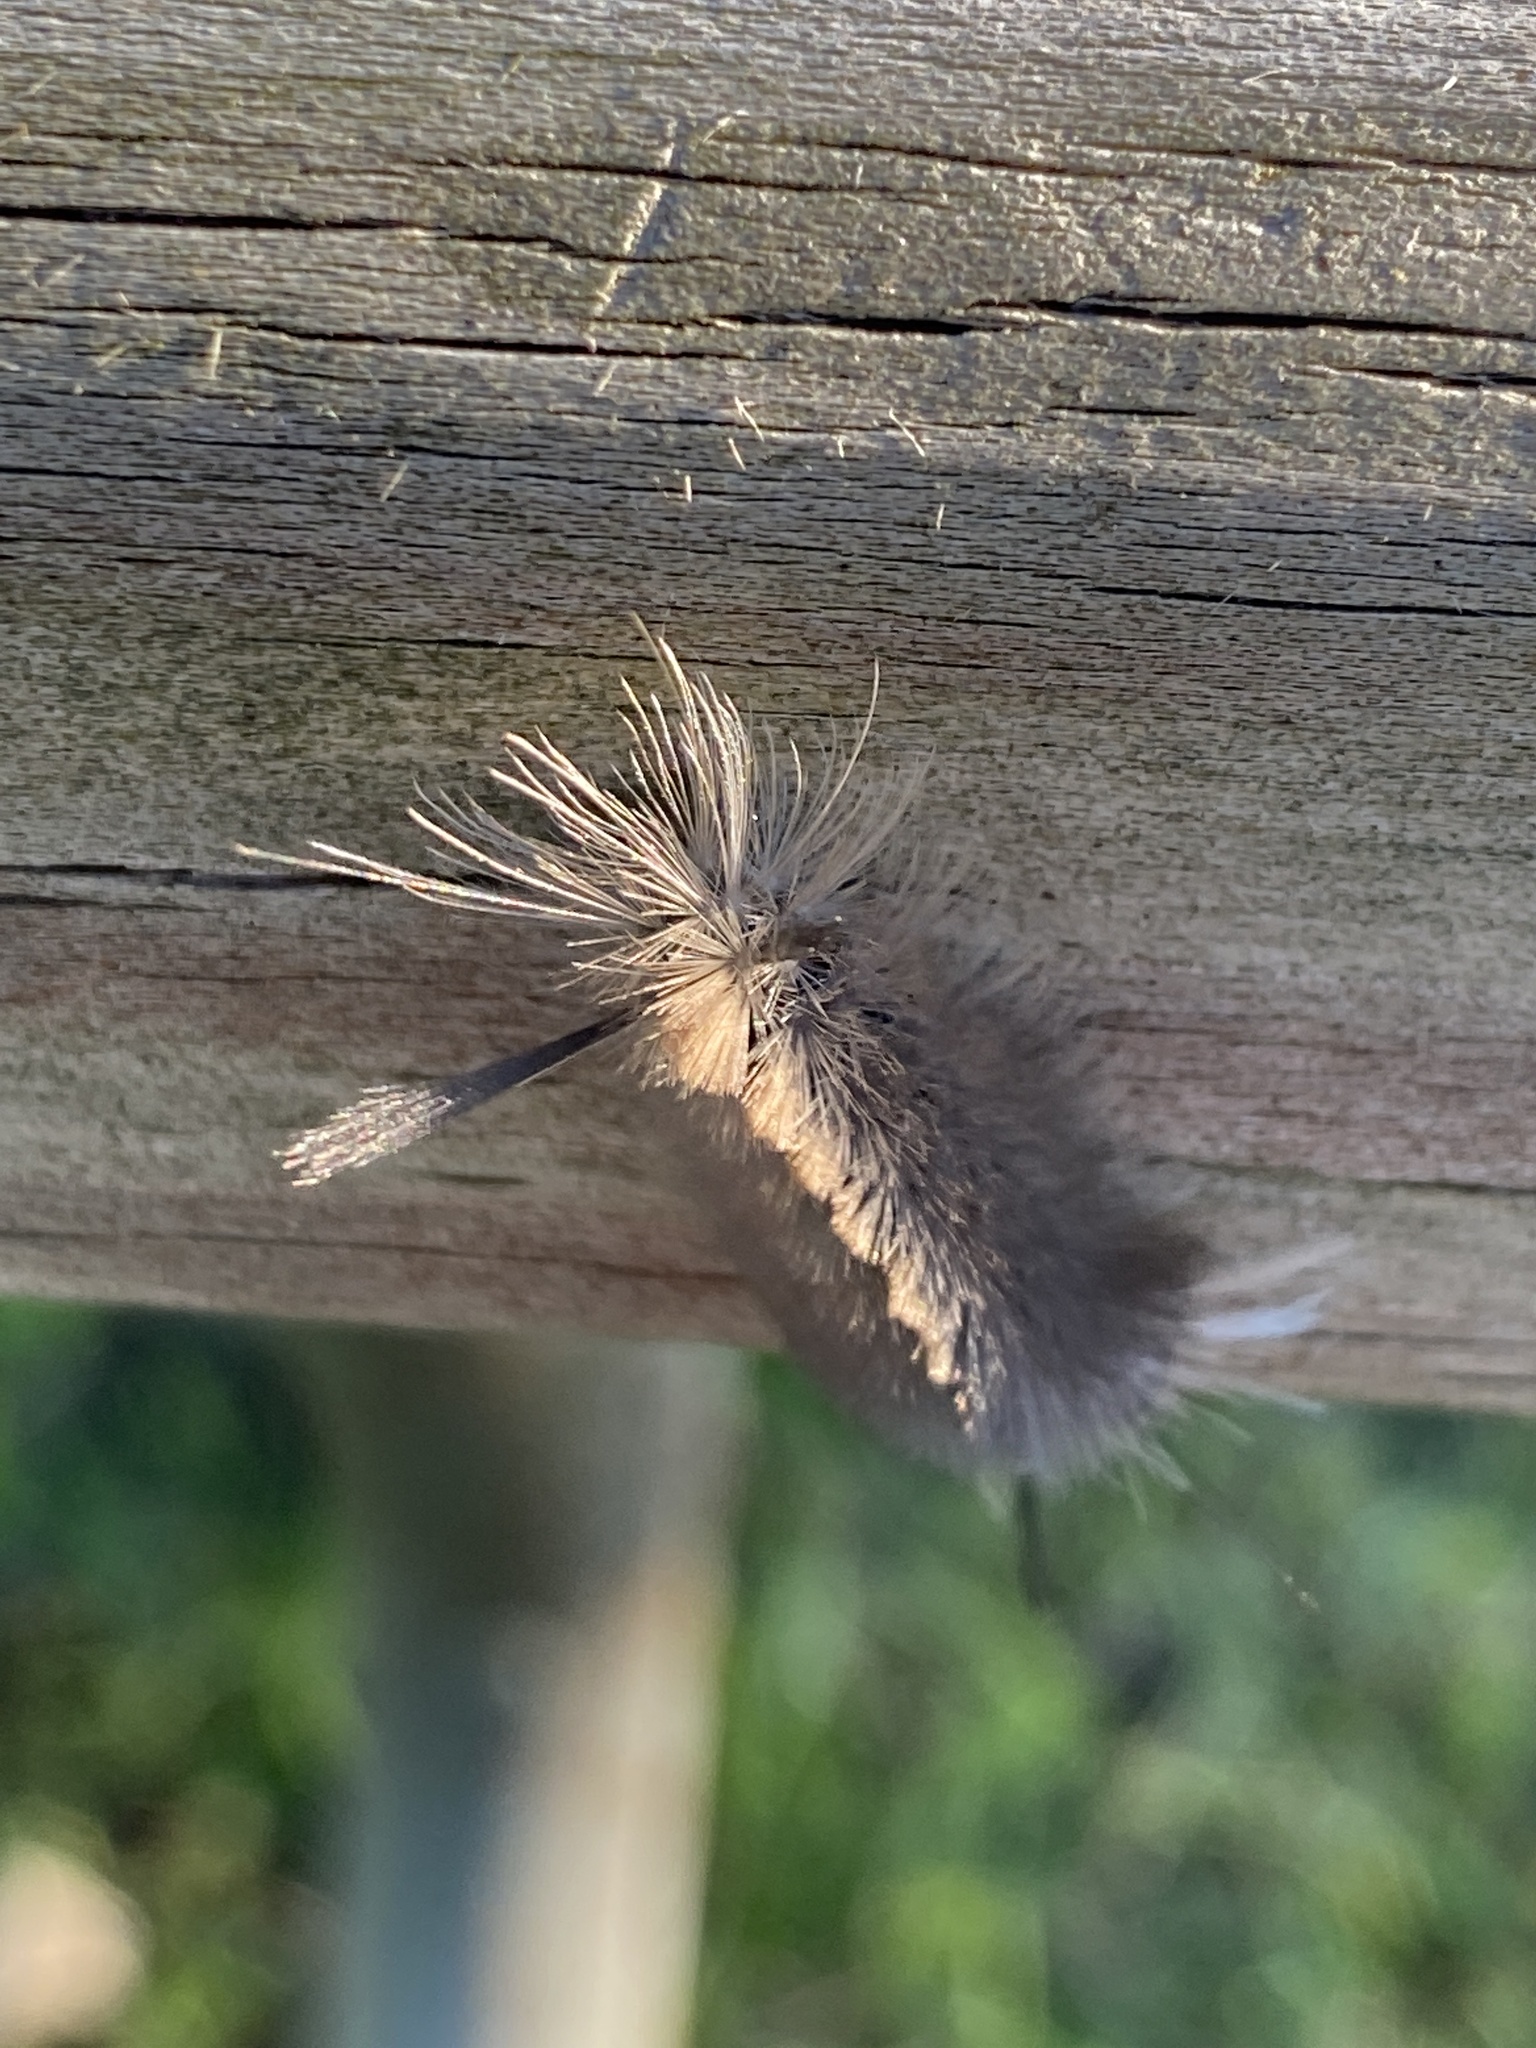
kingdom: Animalia
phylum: Arthropoda
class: Insecta
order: Lepidoptera
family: Erebidae
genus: Halysidota
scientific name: Halysidota tessellaris
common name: Banded tussock moth
